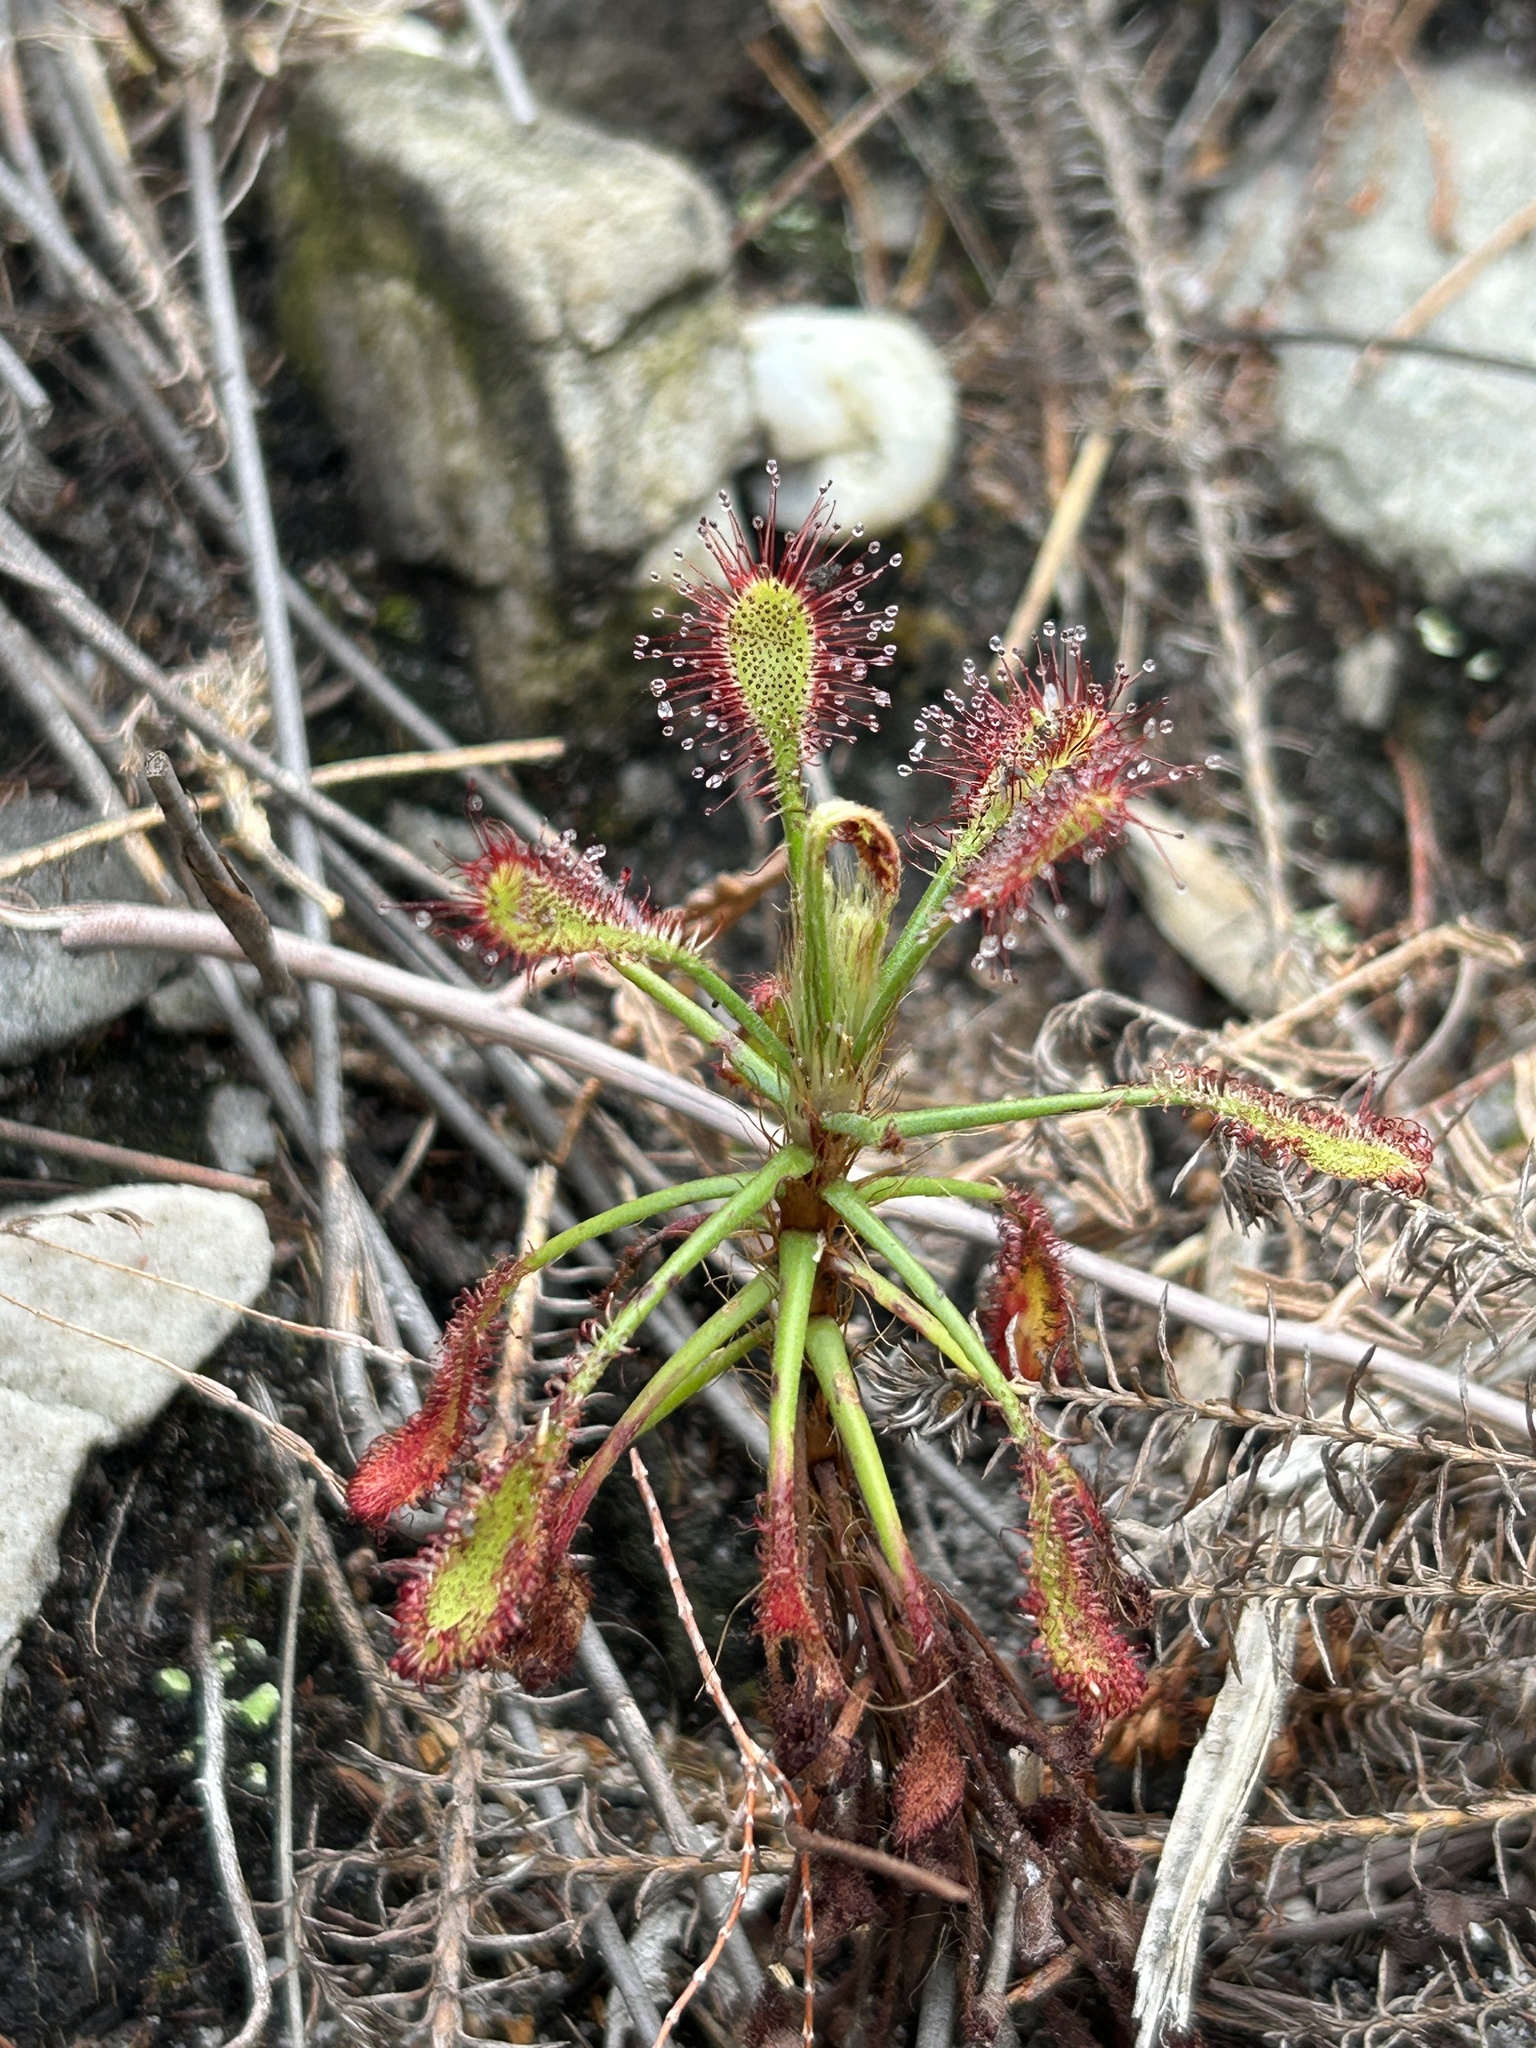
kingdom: Plantae
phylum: Tracheophyta
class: Magnoliopsida
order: Caryophyllales
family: Droseraceae
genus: Drosera
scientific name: Drosera glabripes
